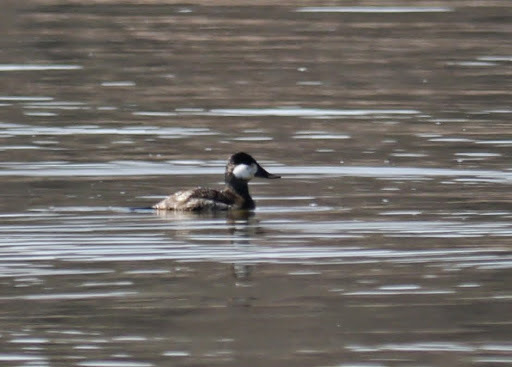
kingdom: Animalia
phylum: Chordata
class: Aves
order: Anseriformes
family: Anatidae
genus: Oxyura
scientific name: Oxyura jamaicensis
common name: Ruddy duck
